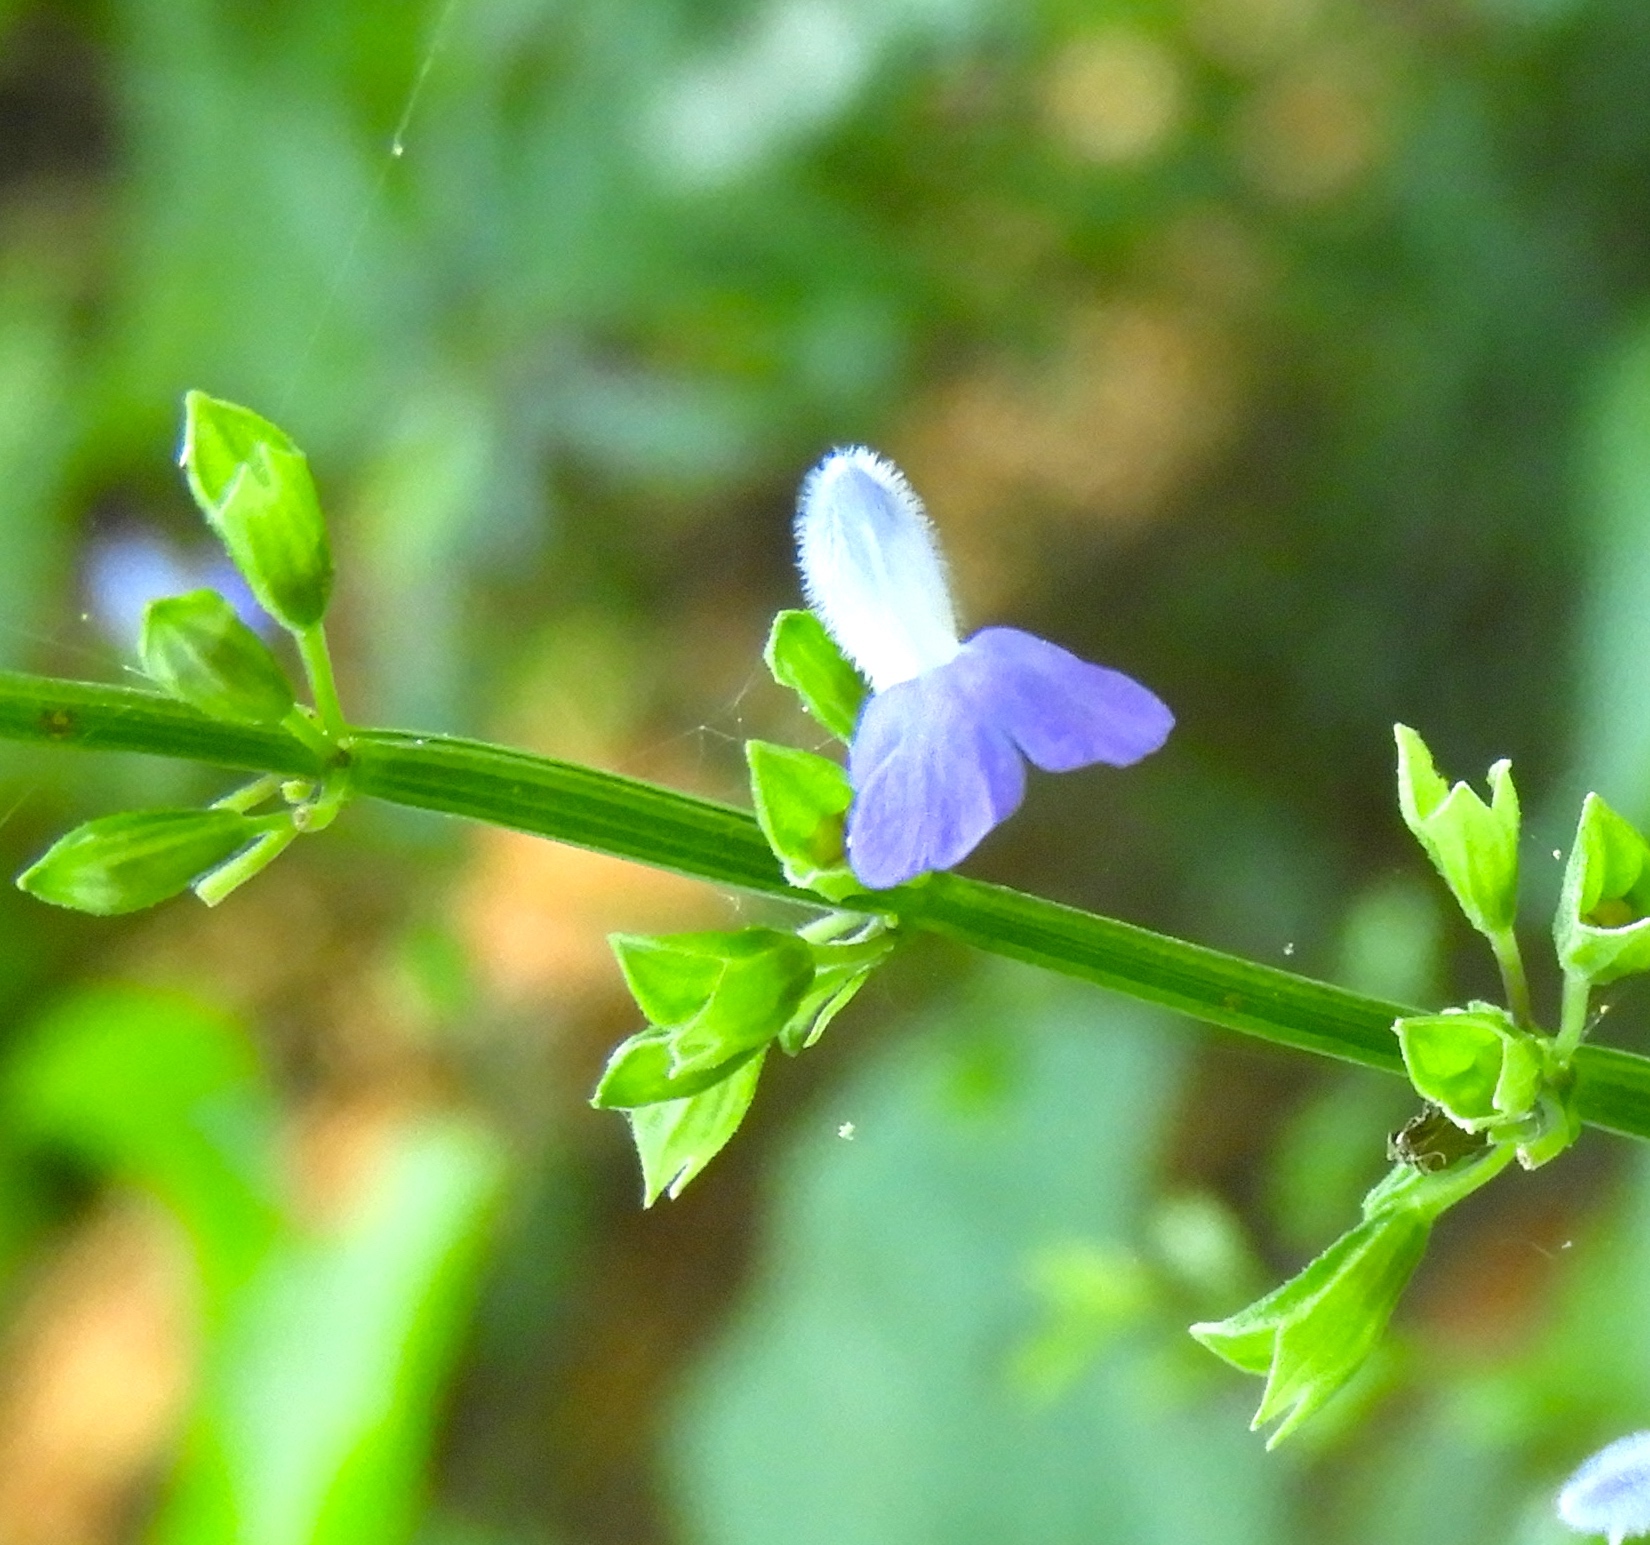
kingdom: Plantae
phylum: Tracheophyta
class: Magnoliopsida
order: Lamiales
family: Lamiaceae
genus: Salvia
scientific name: Salvia languidula
